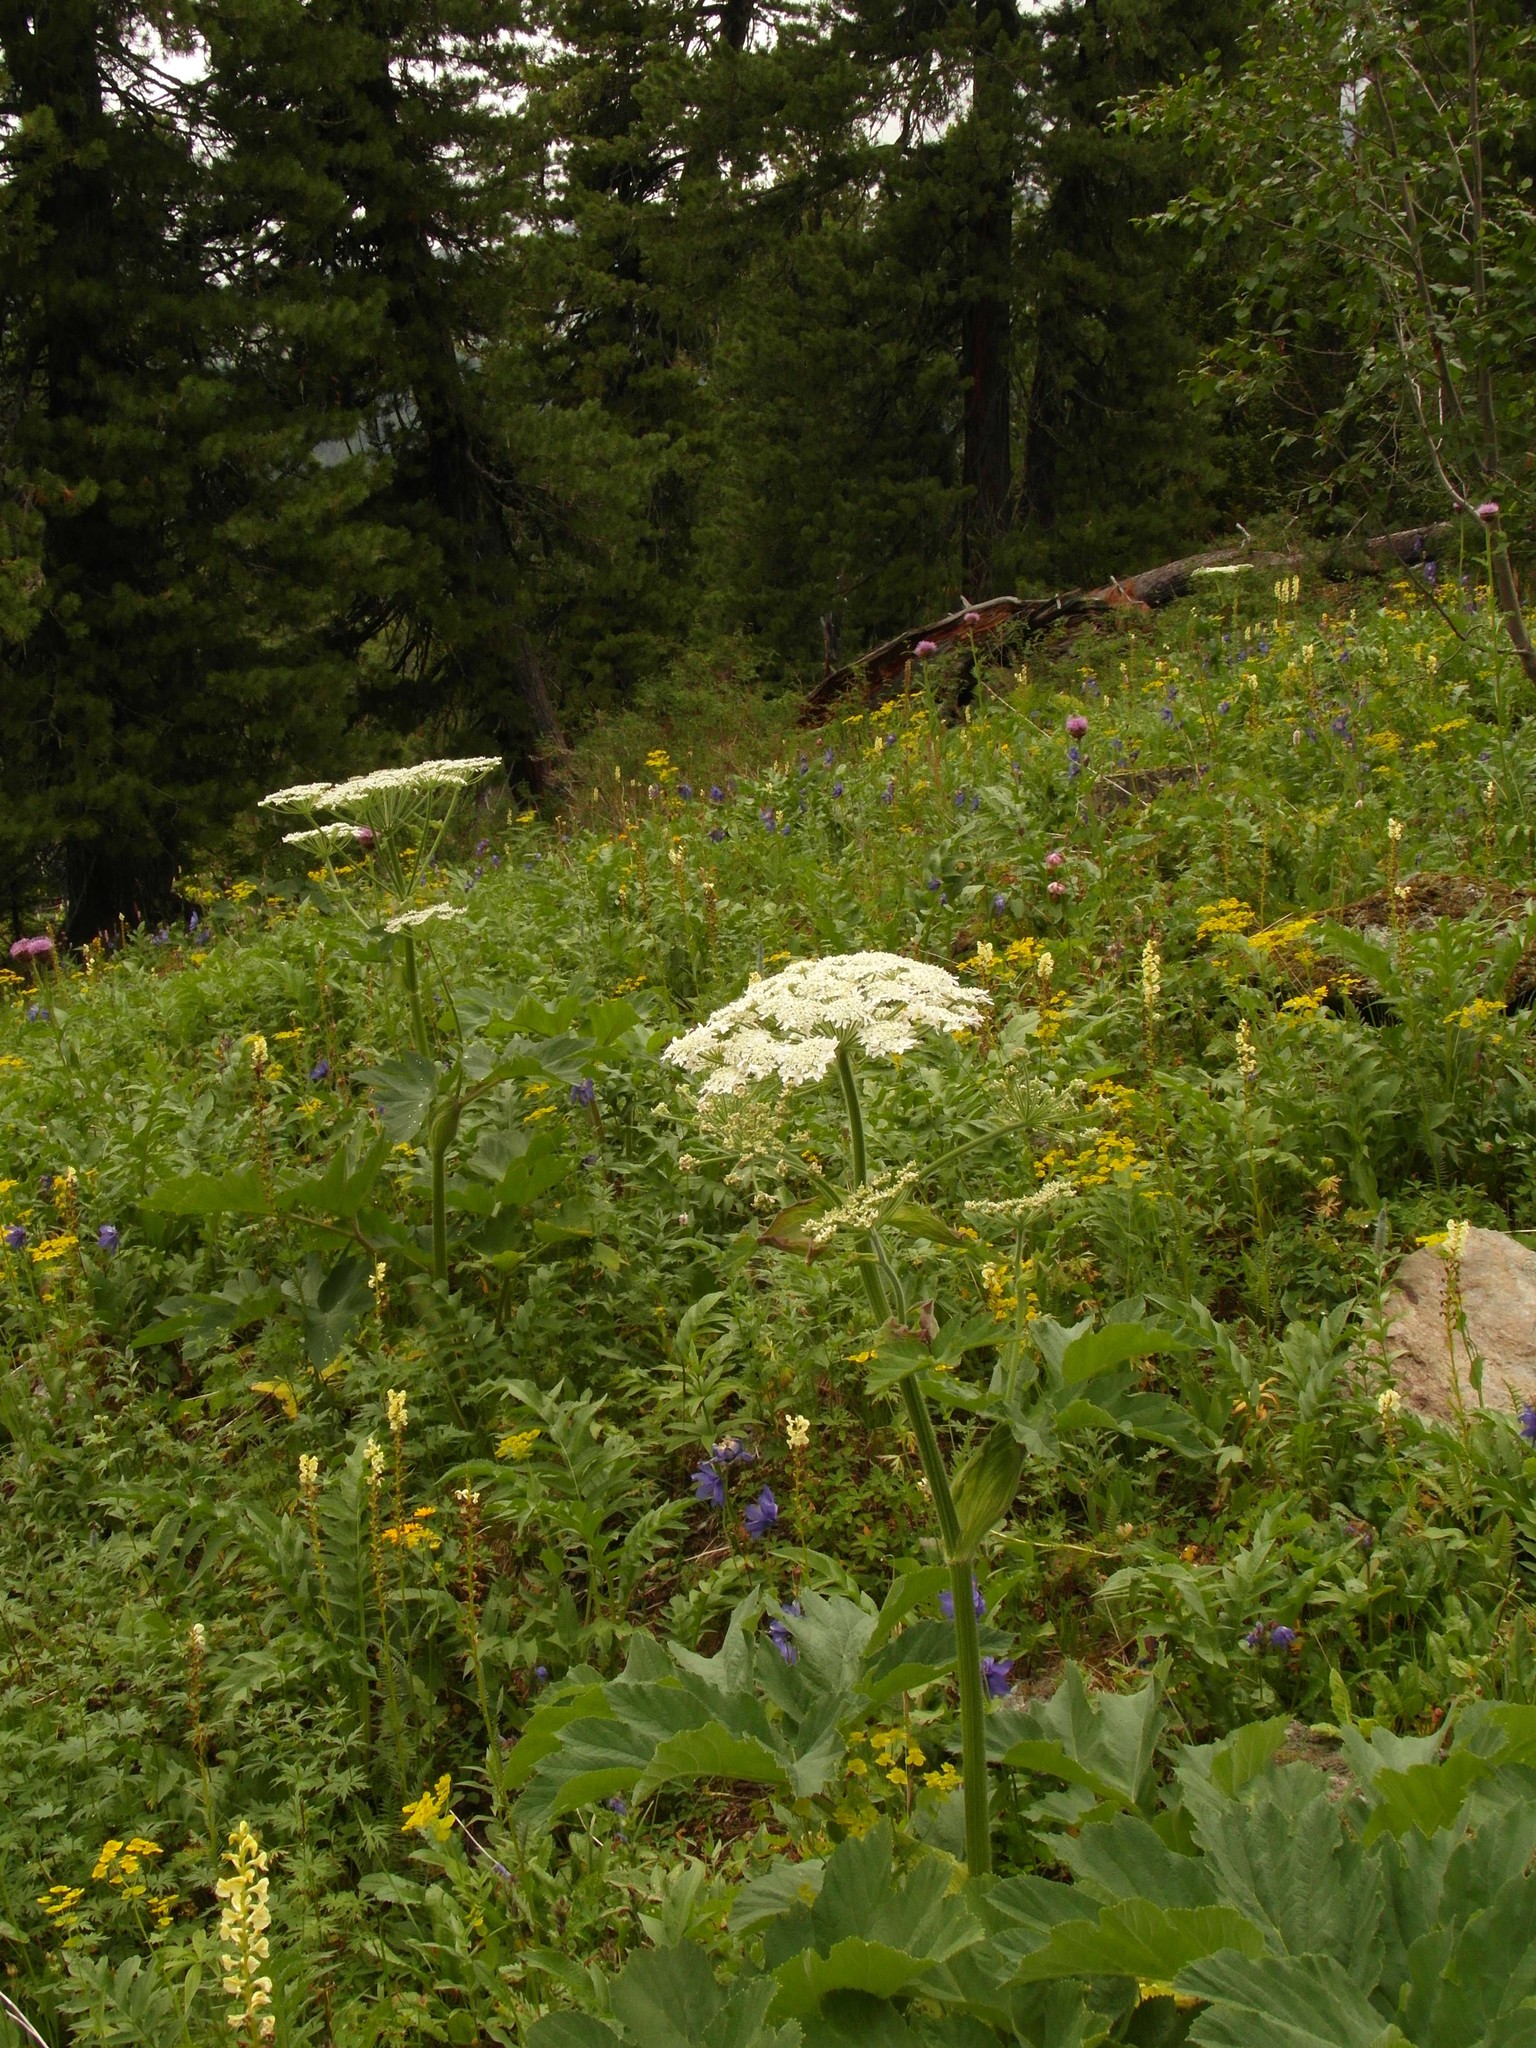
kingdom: Plantae
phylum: Tracheophyta
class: Magnoliopsida
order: Apiales
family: Apiaceae
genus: Heracleum
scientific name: Heracleum dissectum
